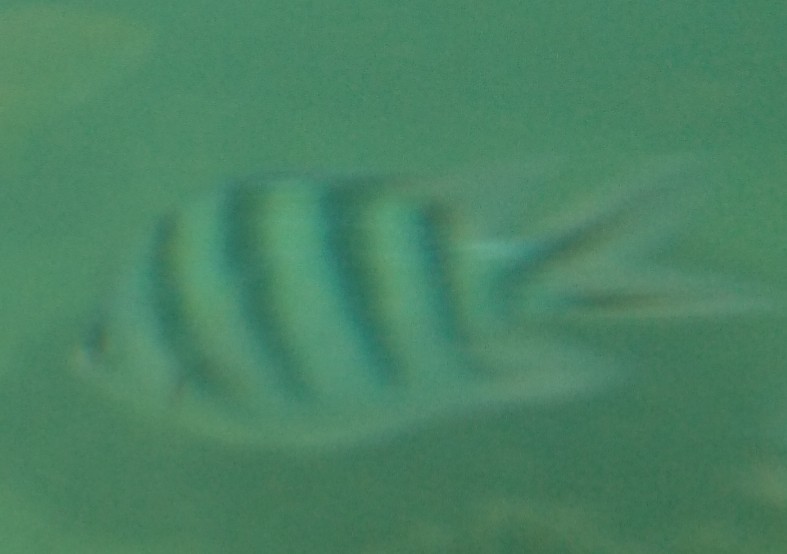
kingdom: Animalia
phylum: Chordata
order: Perciformes
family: Pomacentridae
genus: Abudefduf
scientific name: Abudefduf sexfasciatus
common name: Scissortail sergeant
